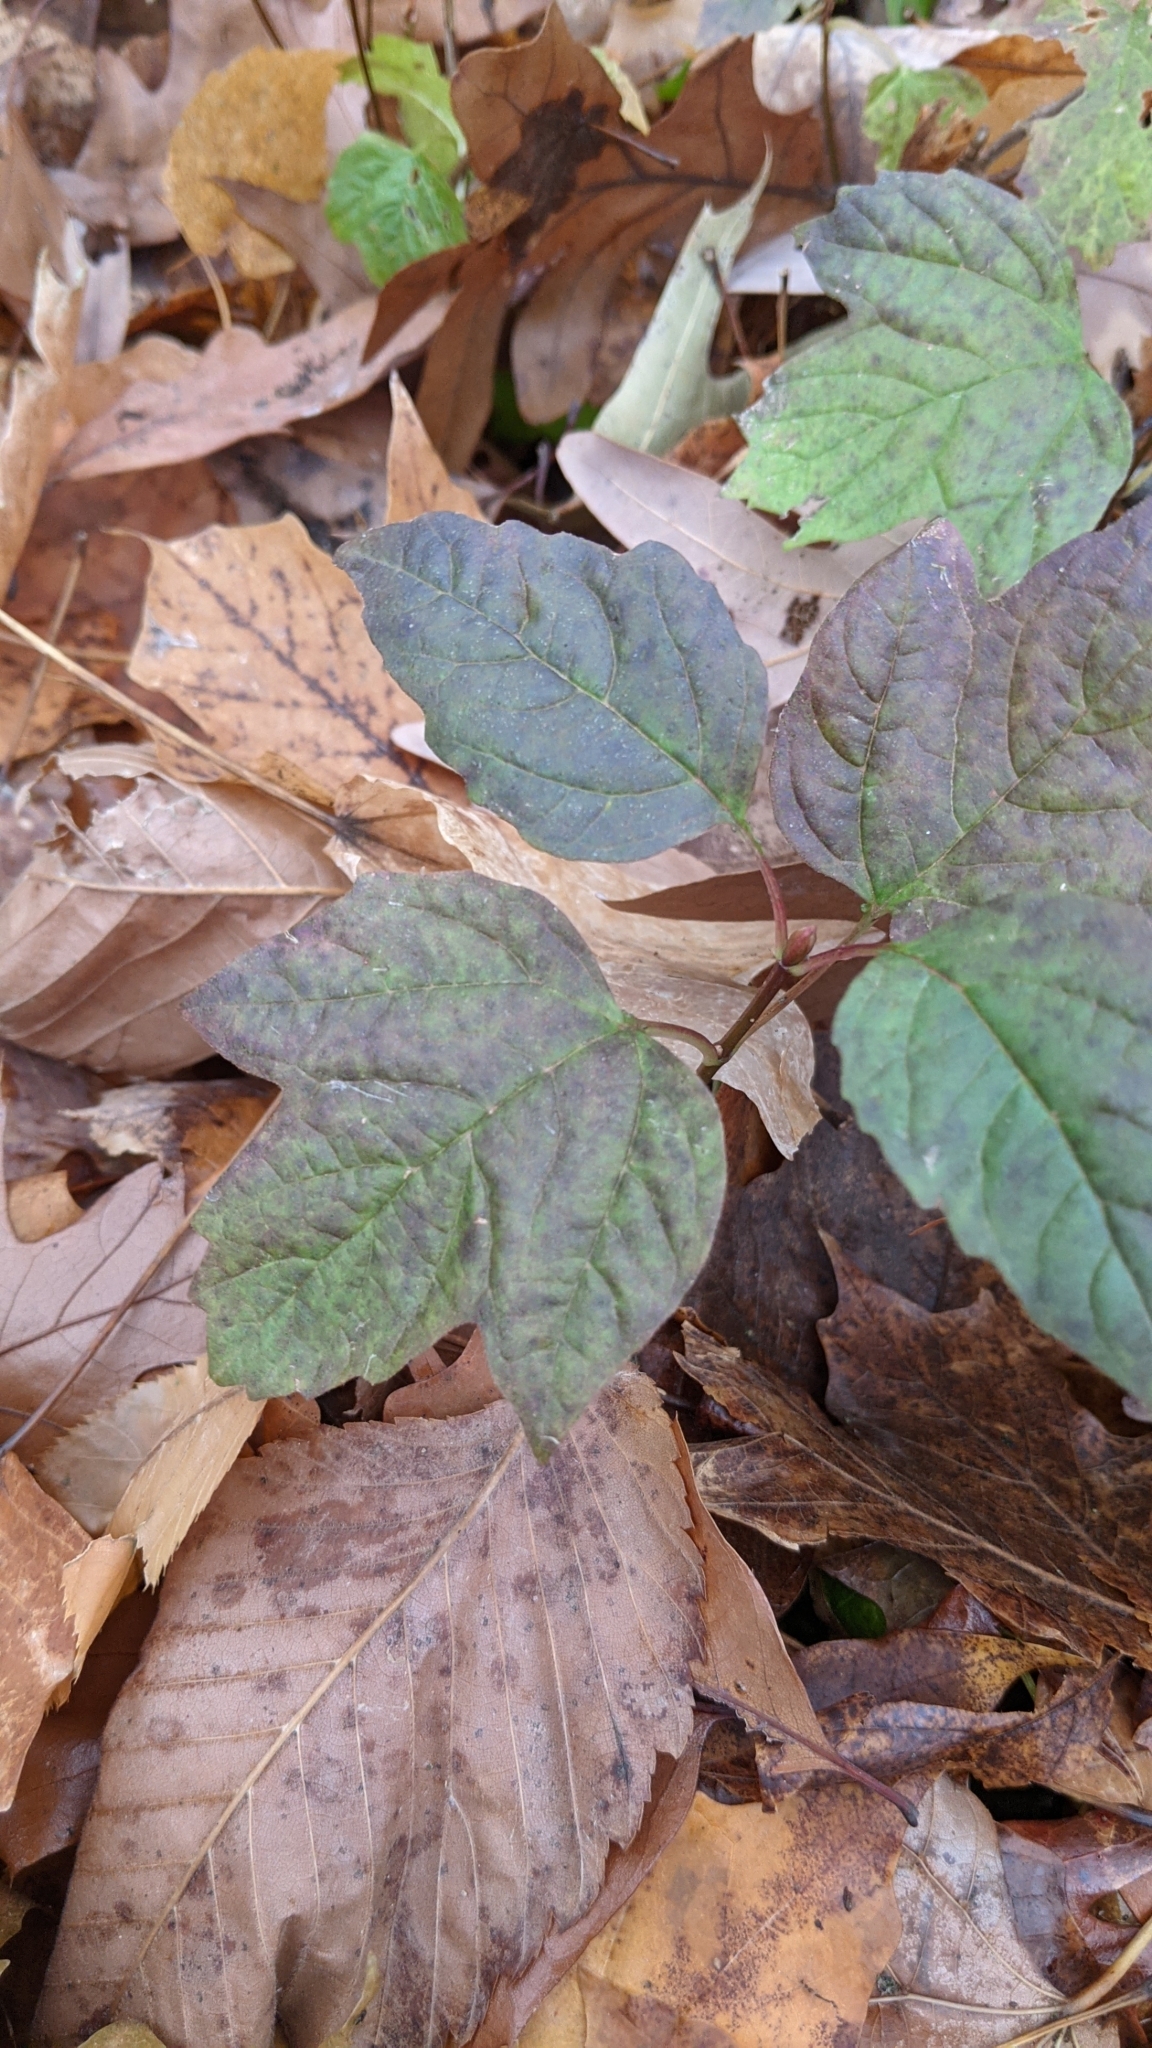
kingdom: Plantae
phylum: Tracheophyta
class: Magnoliopsida
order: Dipsacales
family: Viburnaceae
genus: Viburnum
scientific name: Viburnum opulus
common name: Guelder-rose
